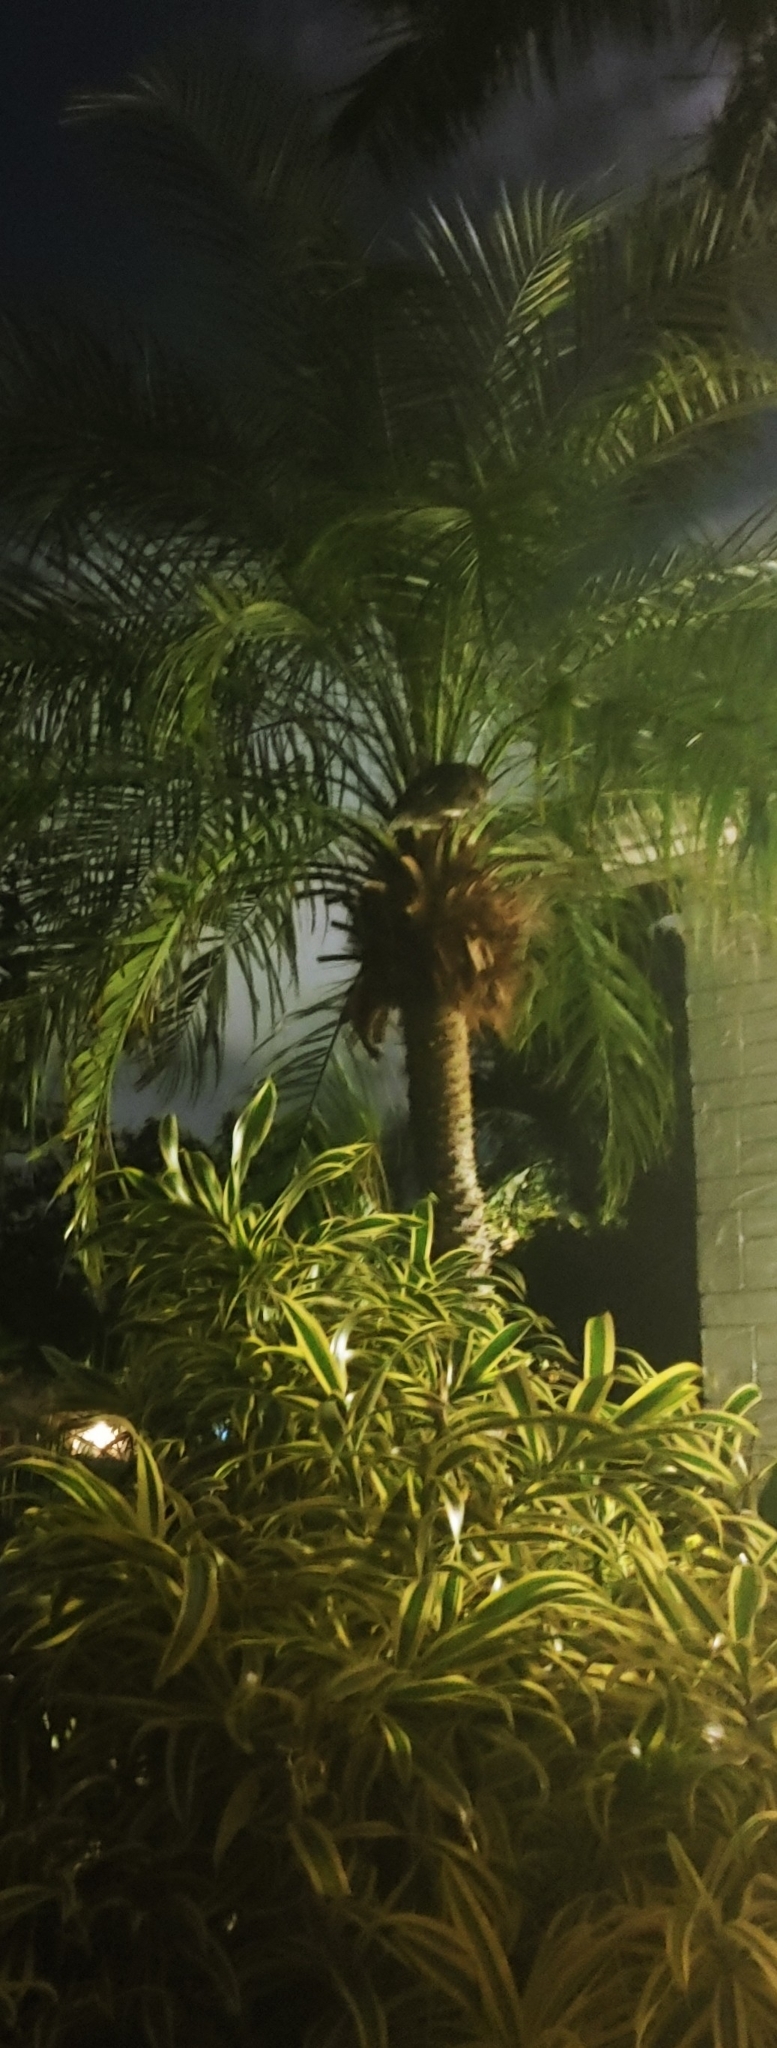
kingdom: Animalia
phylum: Chordata
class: Aves
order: Strigiformes
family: Strigidae
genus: Megascops
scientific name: Megascops asio
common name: Eastern screech-owl
